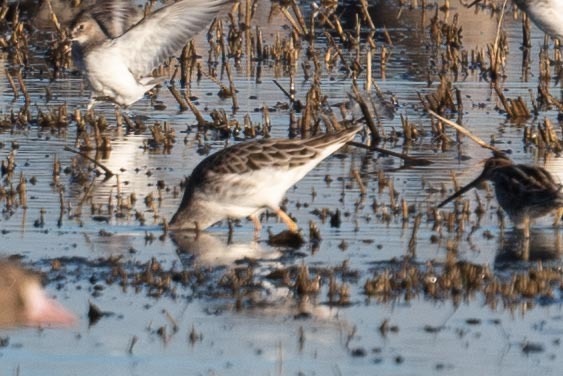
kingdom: Animalia
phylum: Chordata
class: Aves
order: Charadriiformes
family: Scolopacidae
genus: Calidris
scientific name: Calidris pugnax
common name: Ruff
